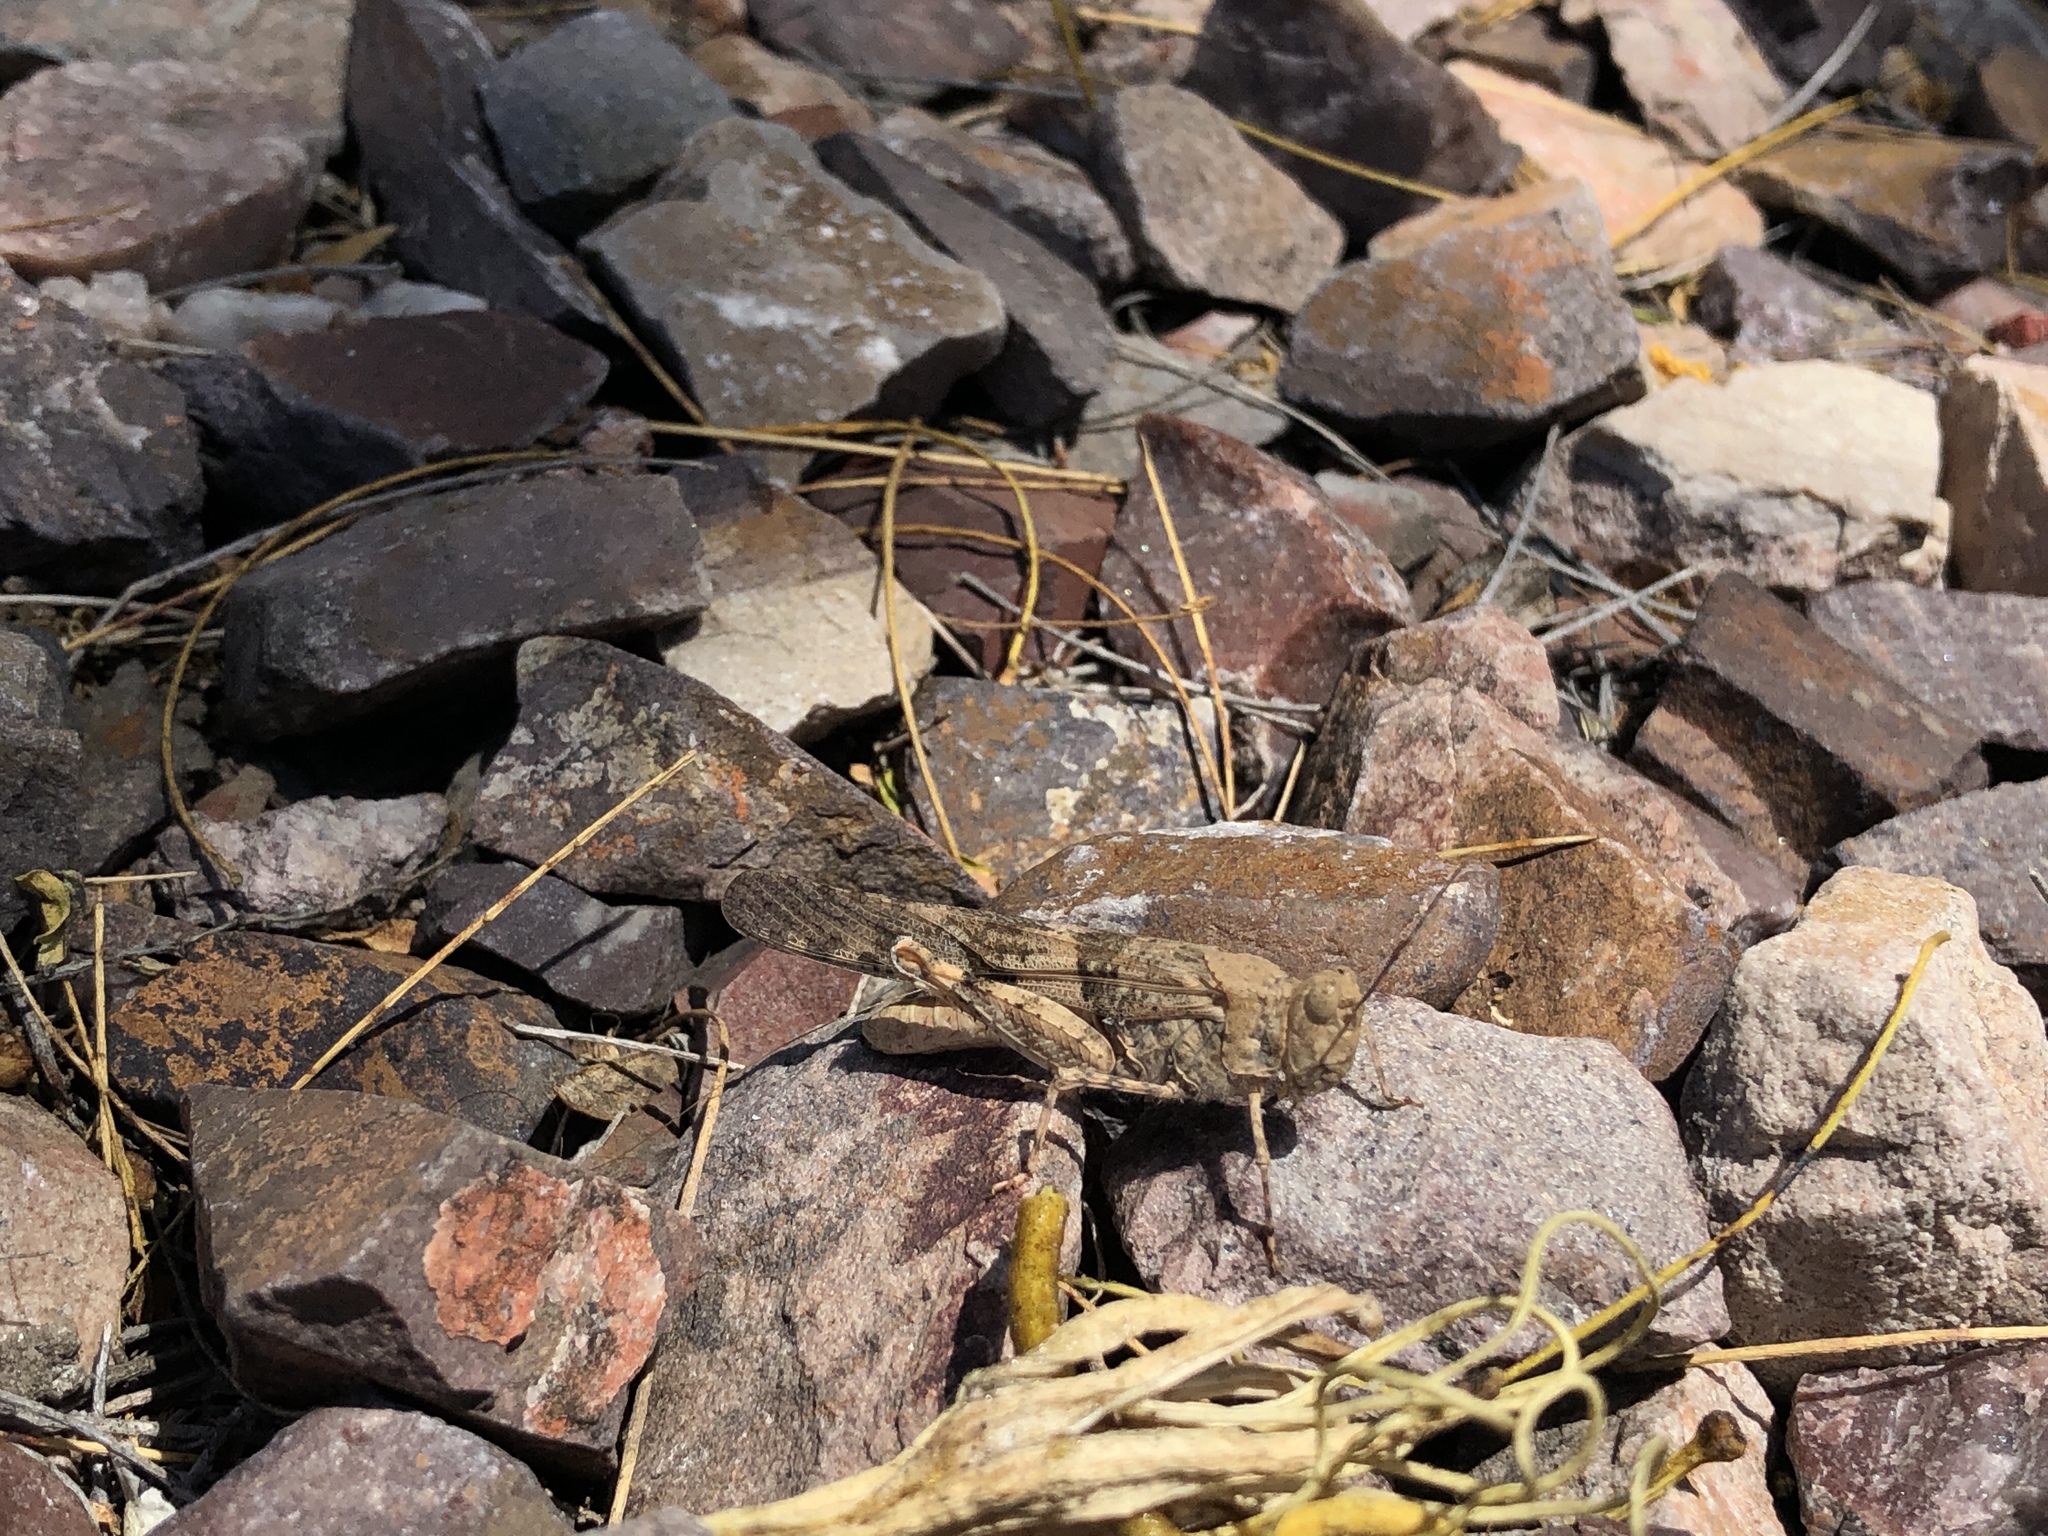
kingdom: Animalia
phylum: Arthropoda
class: Insecta
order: Orthoptera
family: Acrididae
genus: Trimerotropis
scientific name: Trimerotropis pallidipennis
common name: Pallid-winged grasshopper
